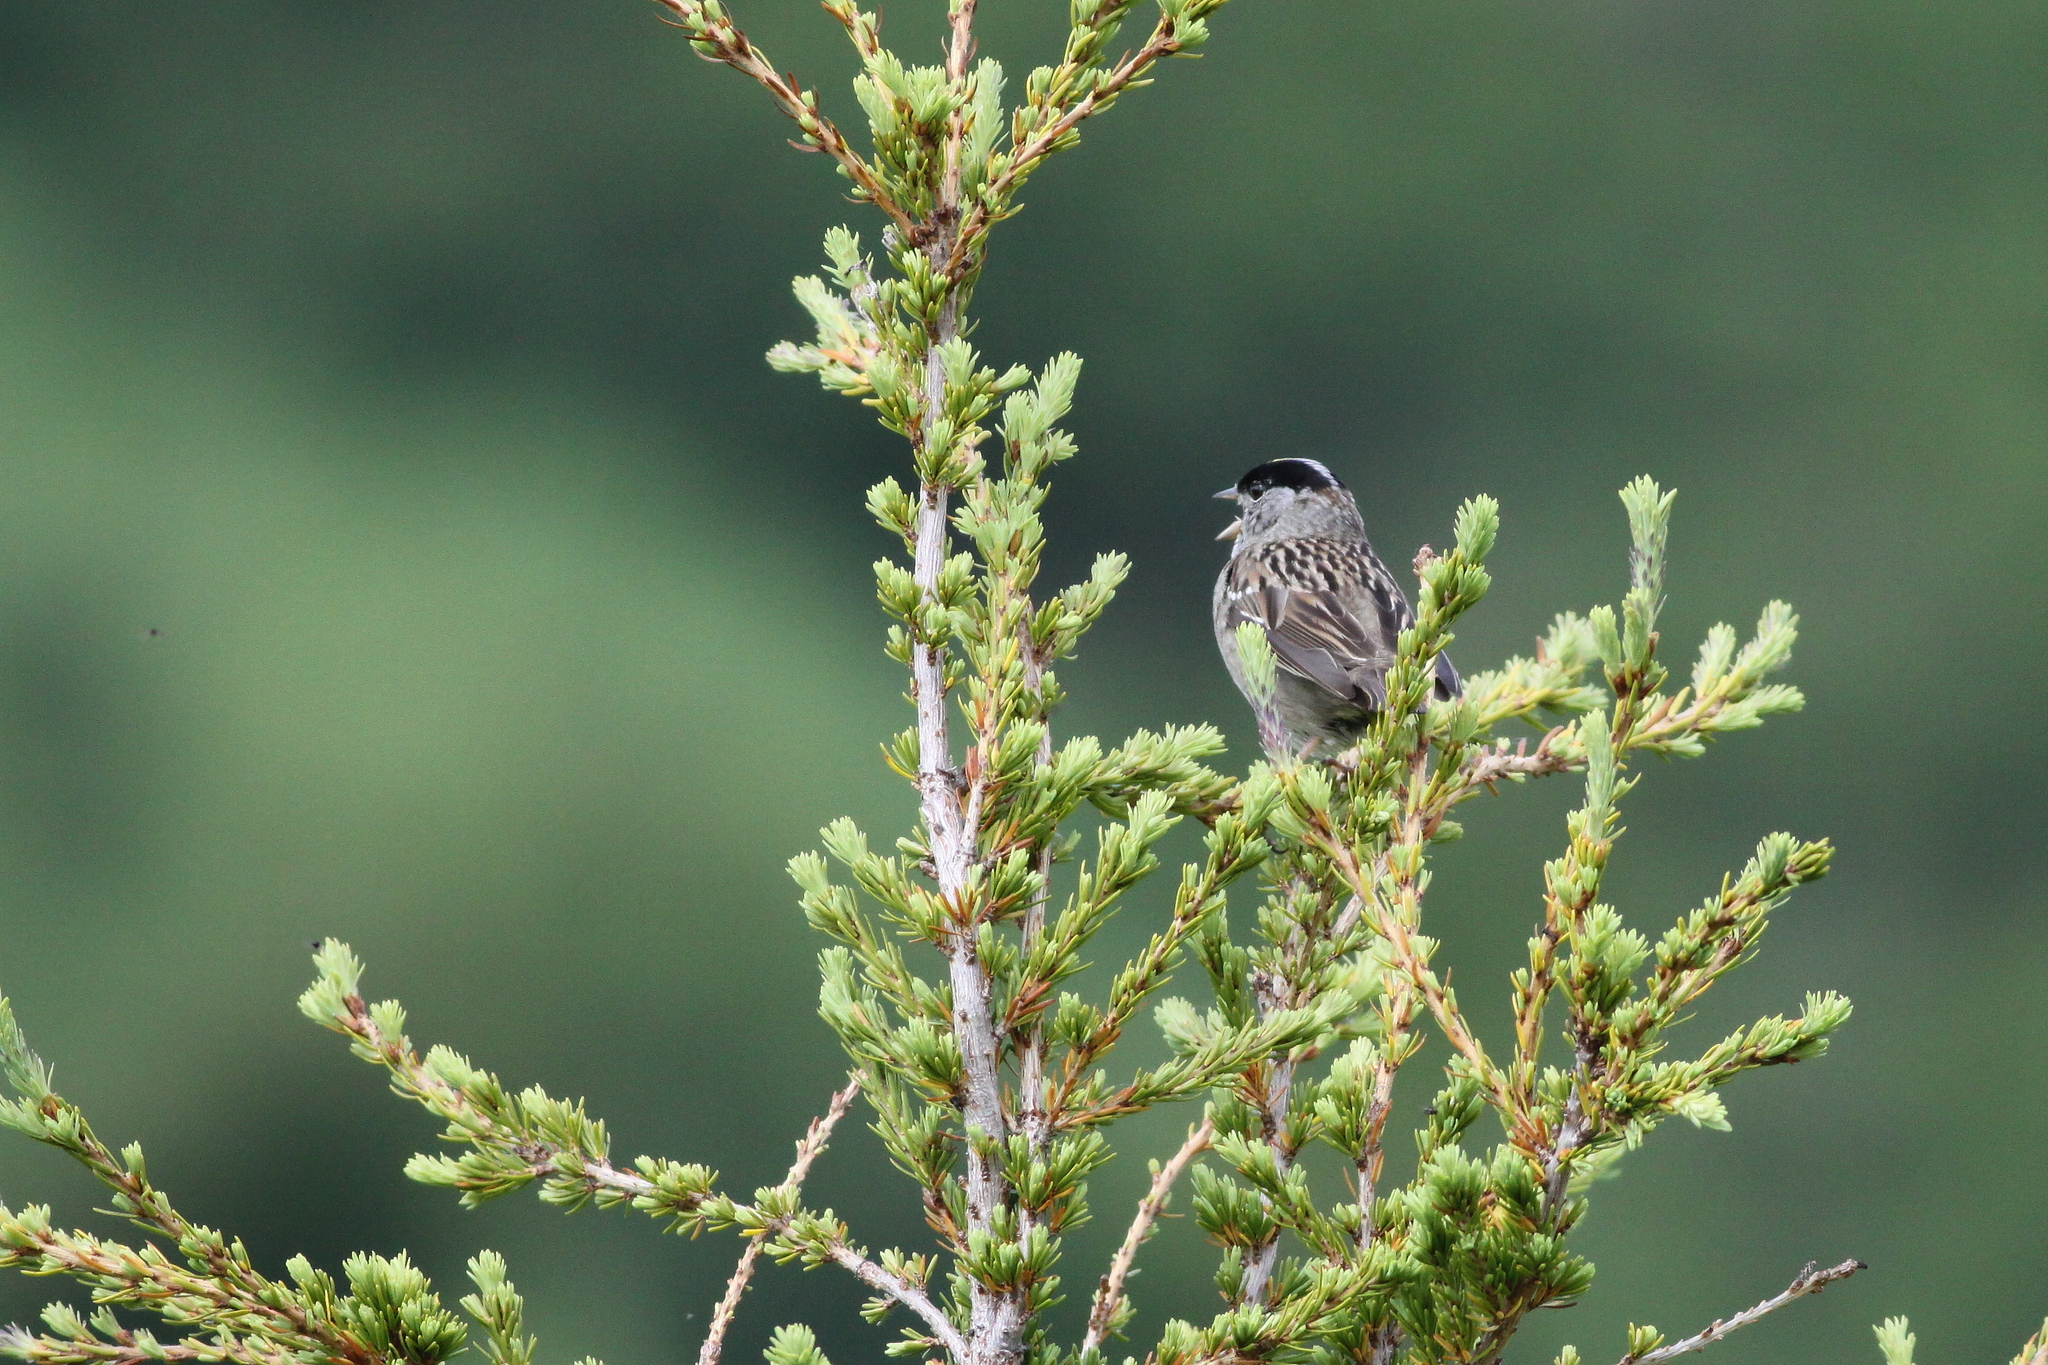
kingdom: Animalia
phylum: Chordata
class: Aves
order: Passeriformes
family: Passerellidae
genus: Zonotrichia
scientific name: Zonotrichia atricapilla
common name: Golden-crowned sparrow
